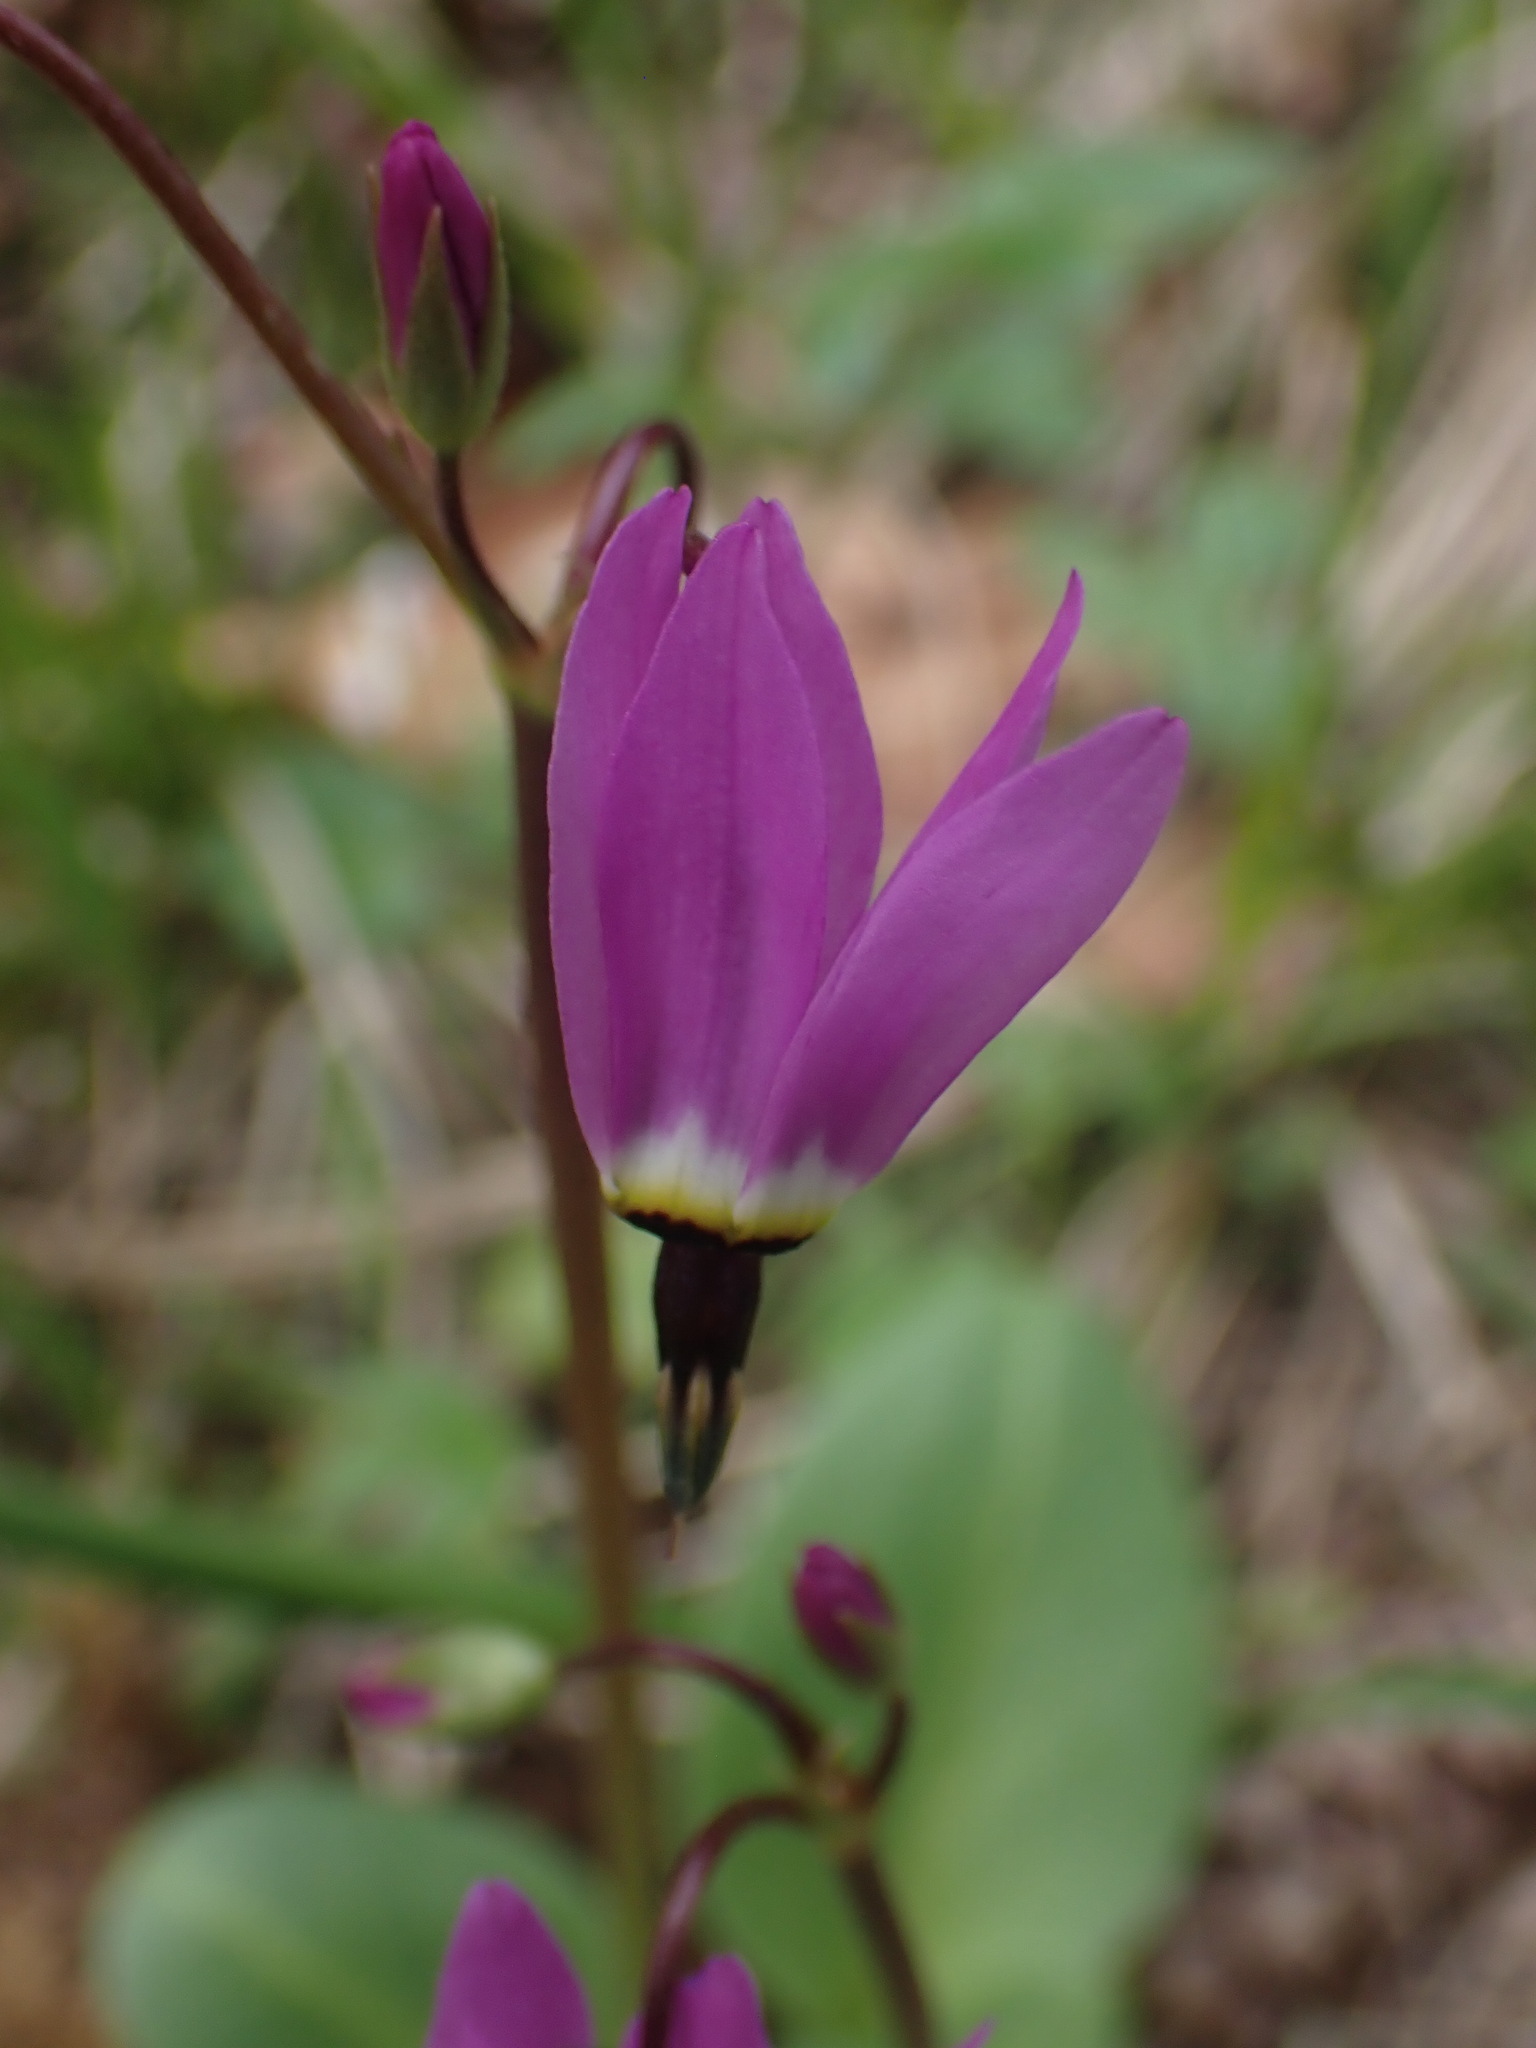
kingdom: Plantae
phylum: Tracheophyta
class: Magnoliopsida
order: Ericales
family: Primulaceae
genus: Dodecatheon
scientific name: Dodecatheon hendersonii
